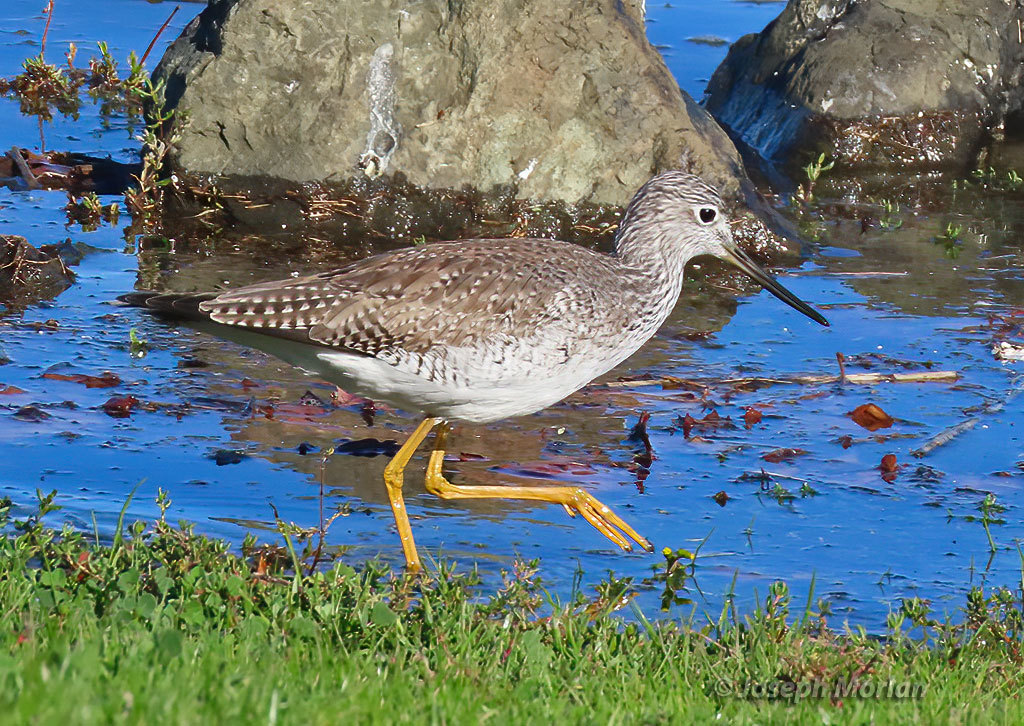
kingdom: Animalia
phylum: Chordata
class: Aves
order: Charadriiformes
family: Scolopacidae
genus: Tringa
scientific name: Tringa melanoleuca
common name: Greater yellowlegs
